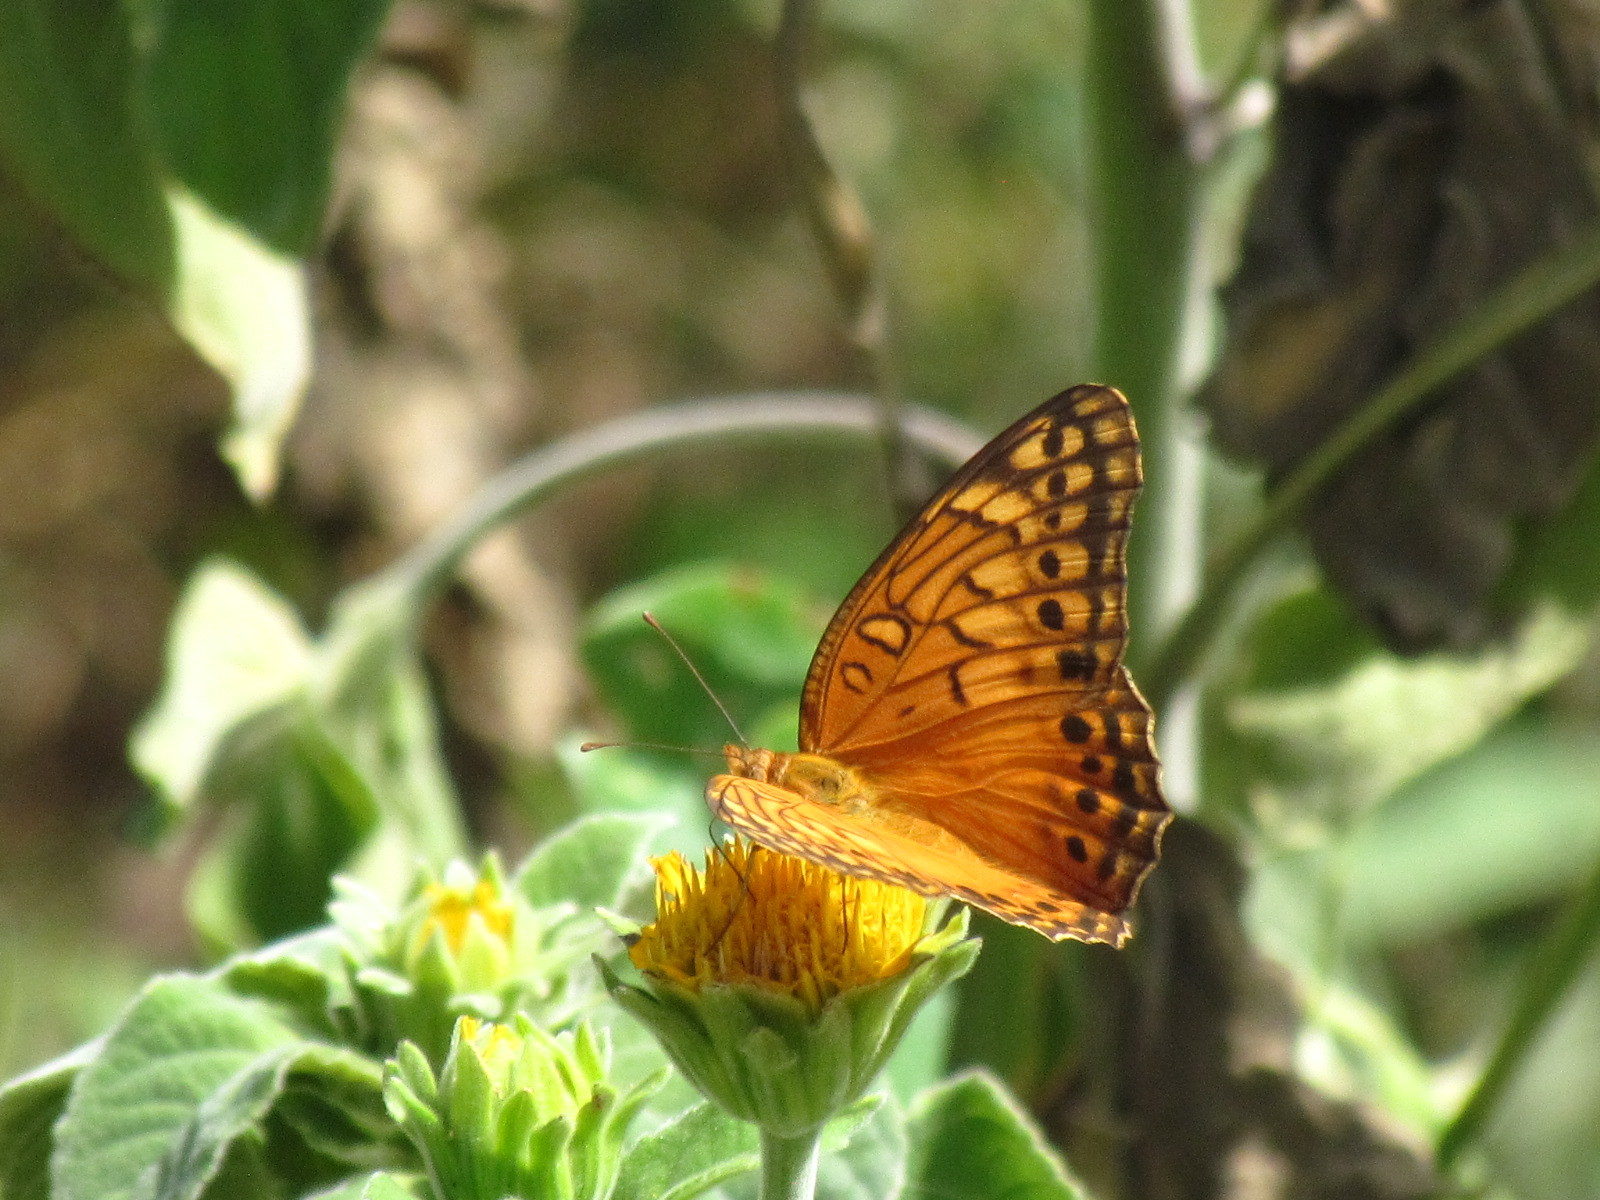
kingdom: Animalia
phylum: Arthropoda
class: Insecta
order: Lepidoptera
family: Nymphalidae
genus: Euptoieta
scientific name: Euptoieta hegesia
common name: Mexican fritillary
